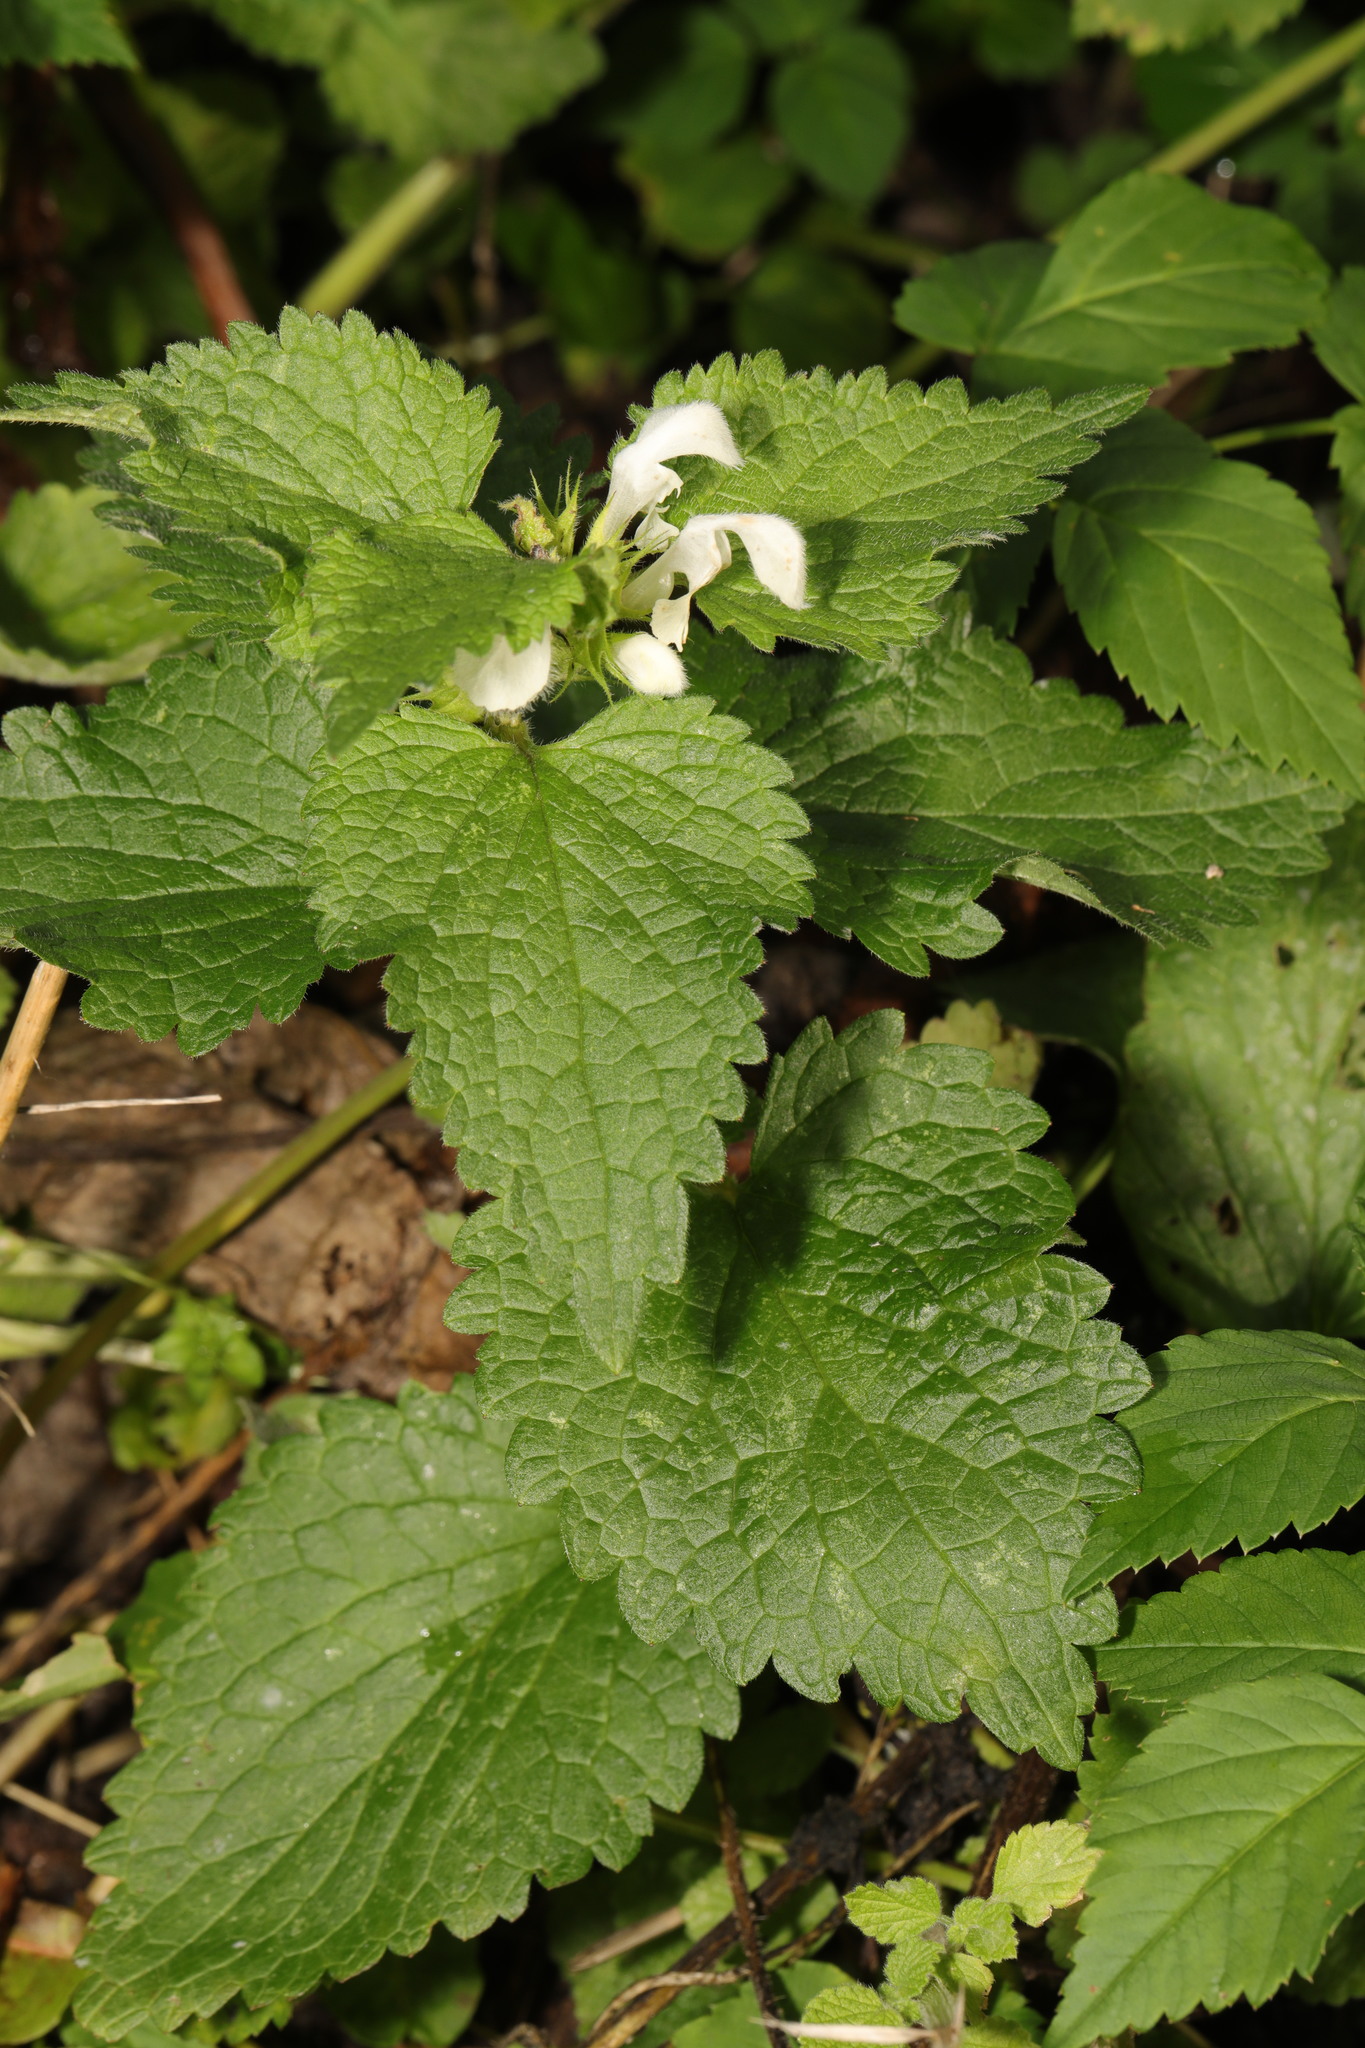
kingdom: Plantae
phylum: Tracheophyta
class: Magnoliopsida
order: Lamiales
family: Lamiaceae
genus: Lamium
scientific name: Lamium album
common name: White dead-nettle
